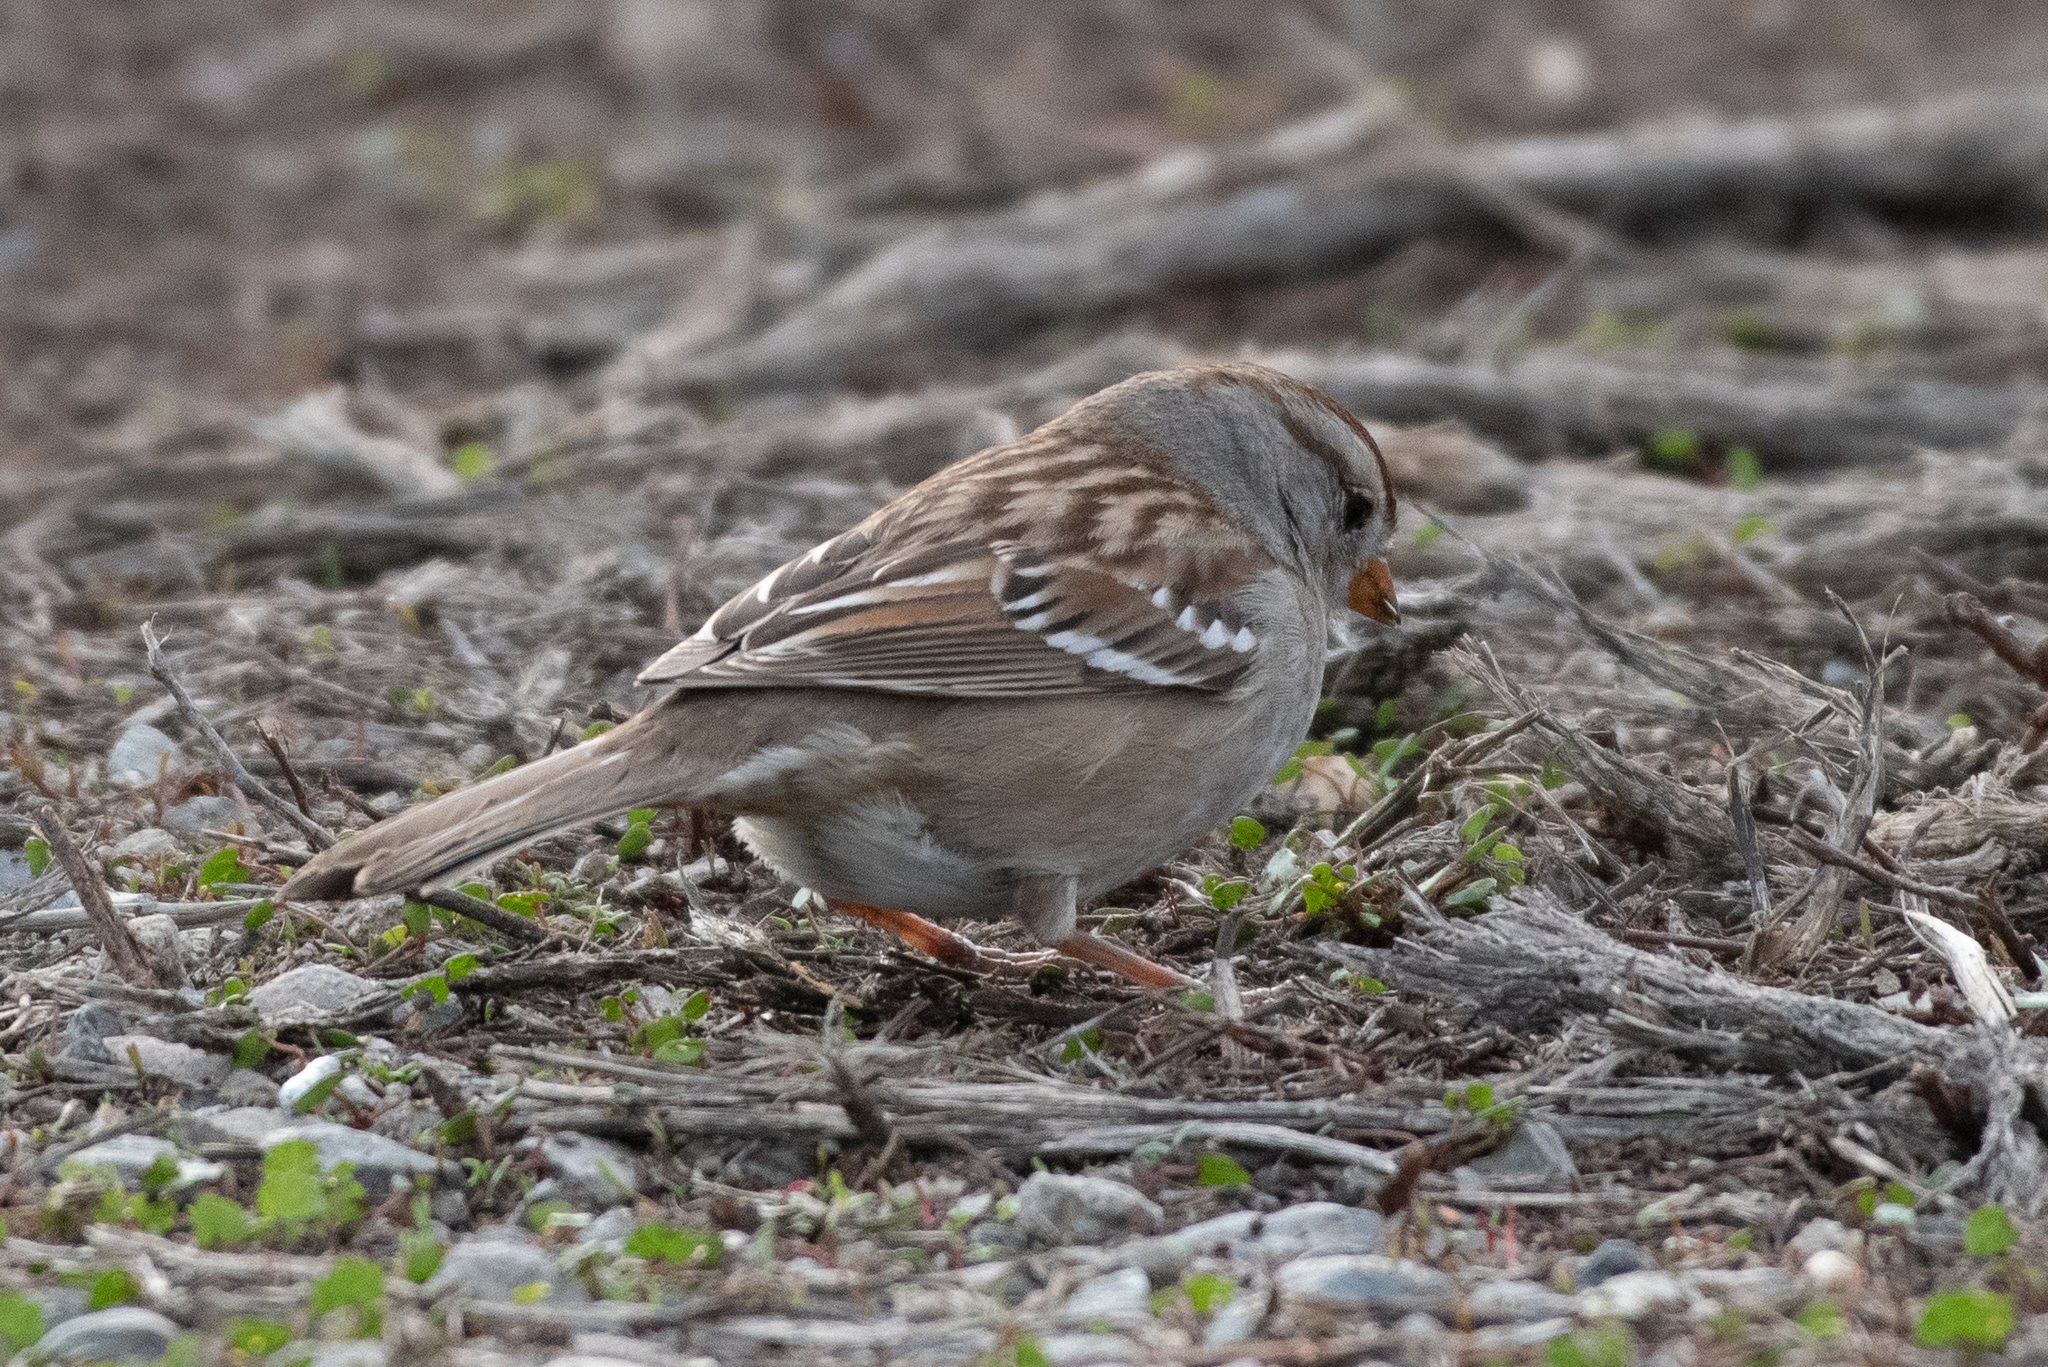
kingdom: Animalia
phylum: Chordata
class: Aves
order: Passeriformes
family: Passerellidae
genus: Zonotrichia
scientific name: Zonotrichia leucophrys
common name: White-crowned sparrow
